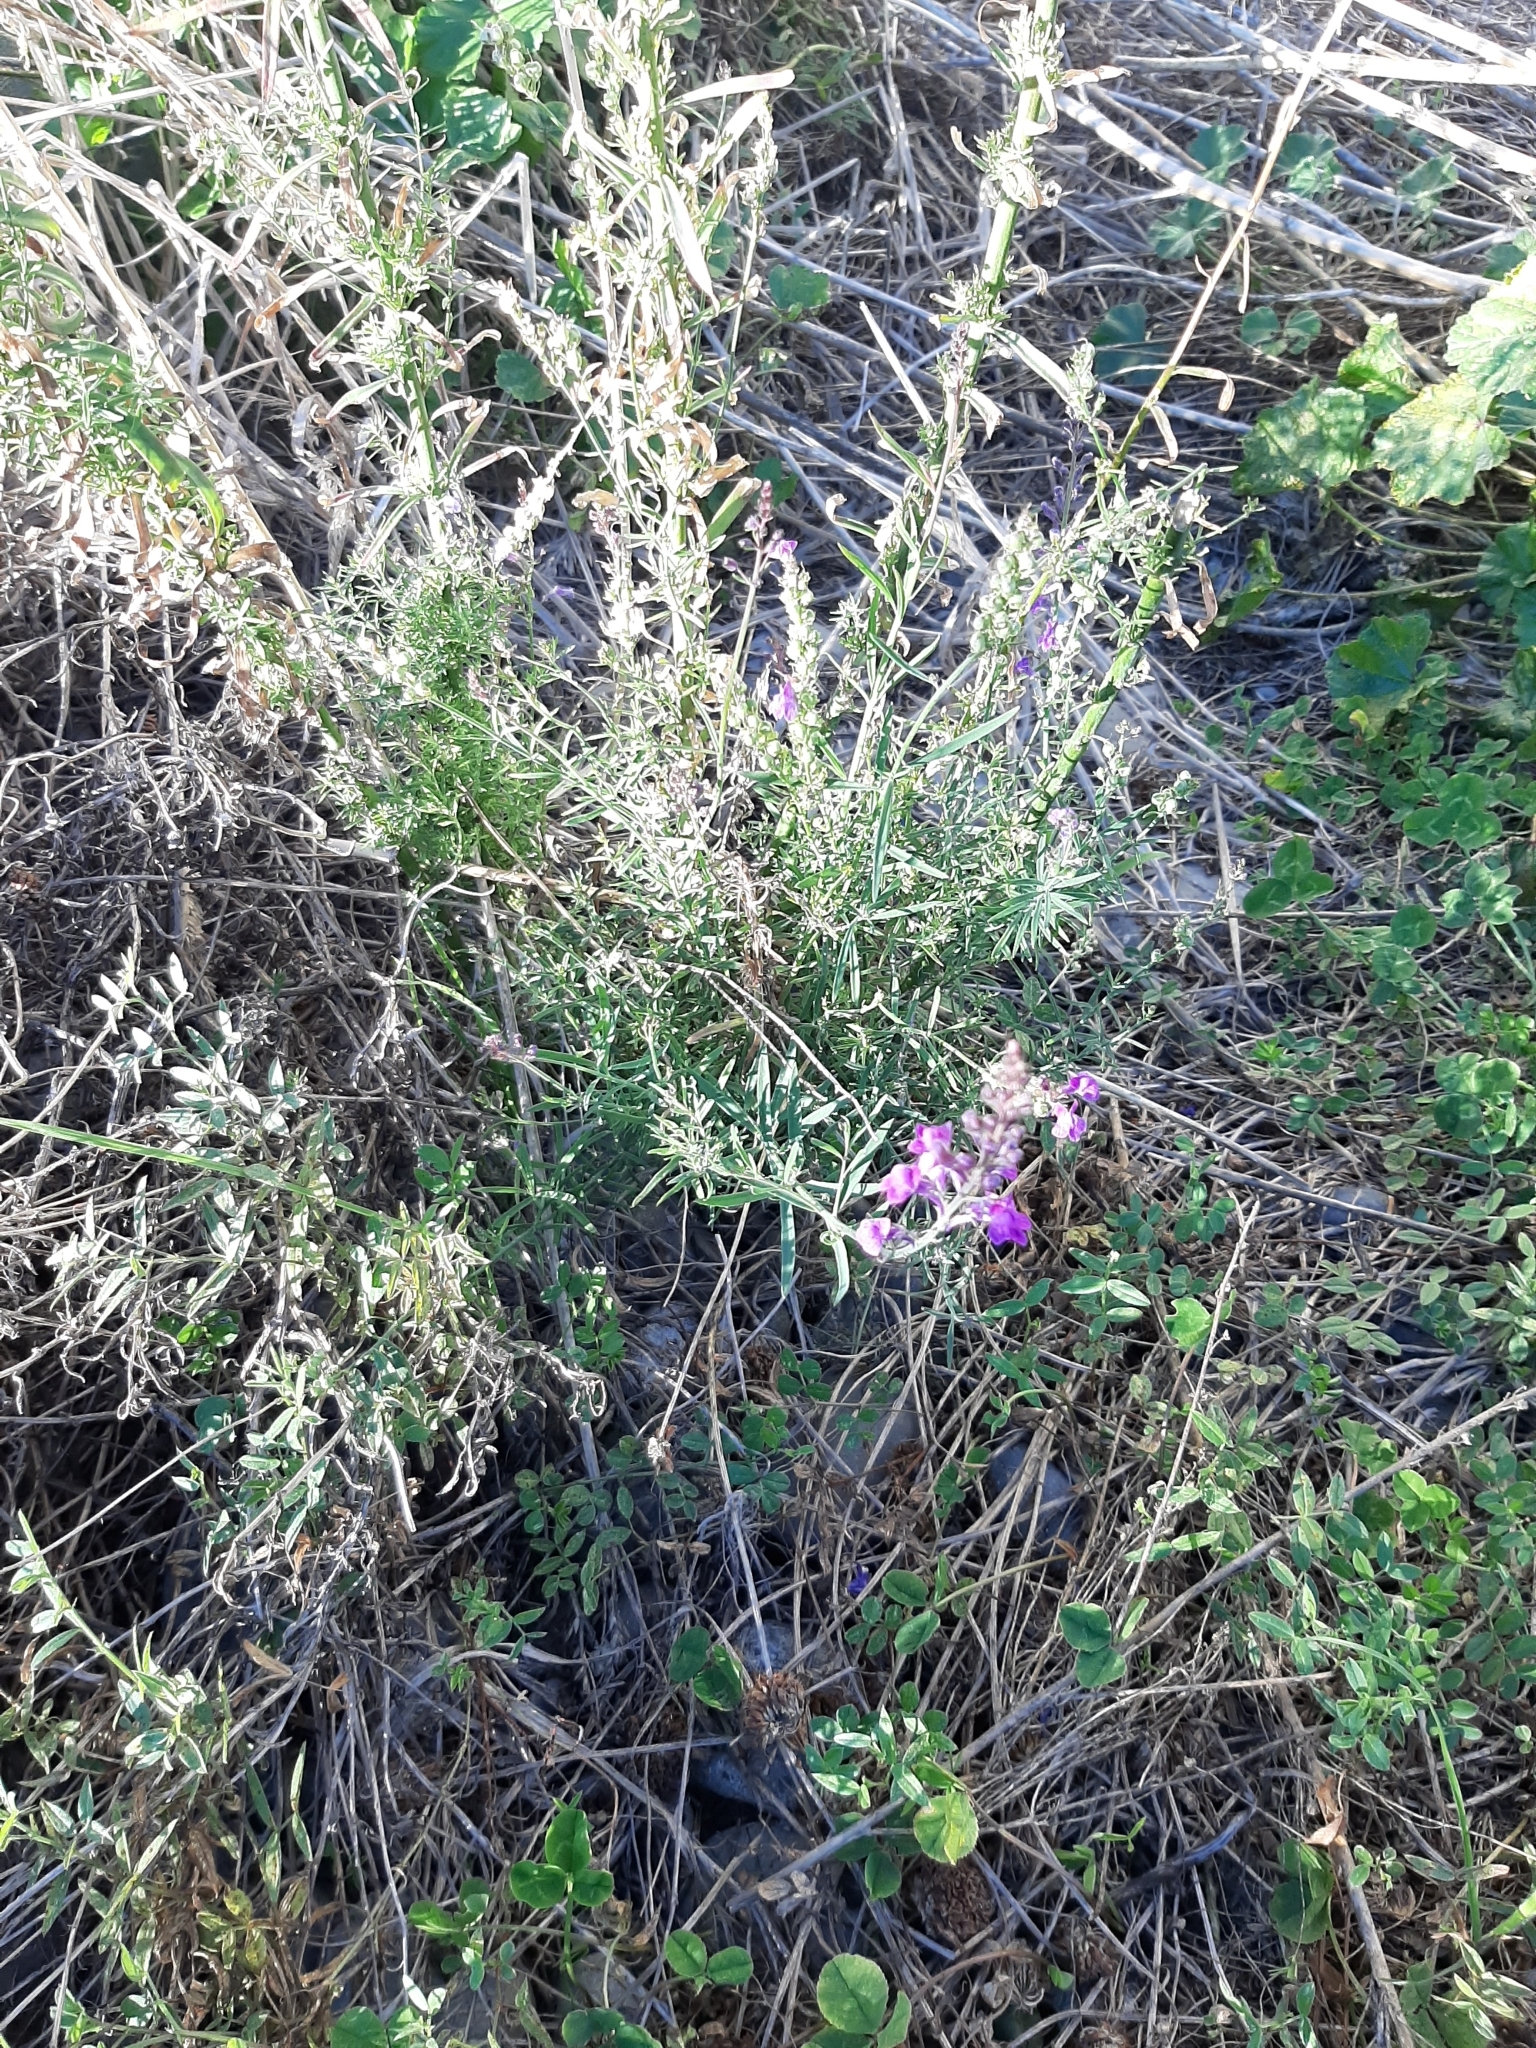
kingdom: Plantae
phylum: Tracheophyta
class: Magnoliopsida
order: Lamiales
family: Plantaginaceae
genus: Linaria
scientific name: Linaria purpurea
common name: Purple toadflax
